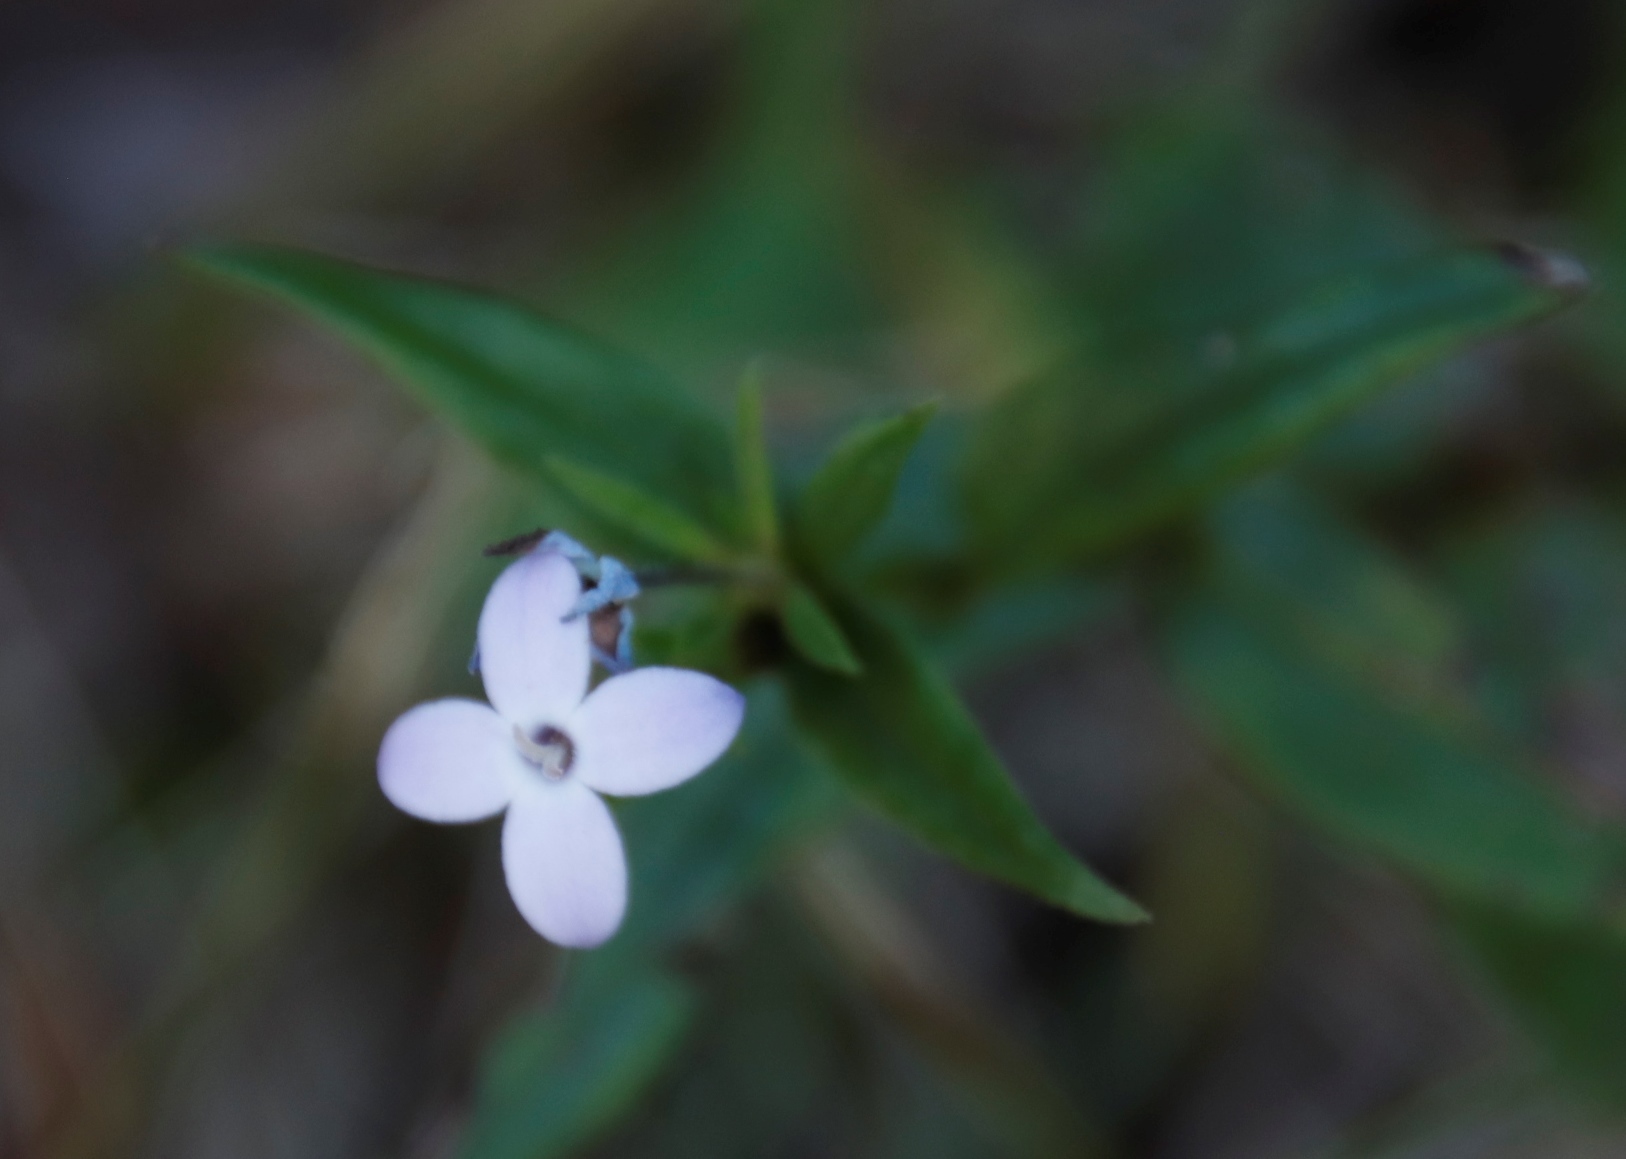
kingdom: Plantae
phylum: Tracheophyta
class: Magnoliopsida
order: Gentianales
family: Rubiaceae
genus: Conostomium
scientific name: Conostomium natalense
